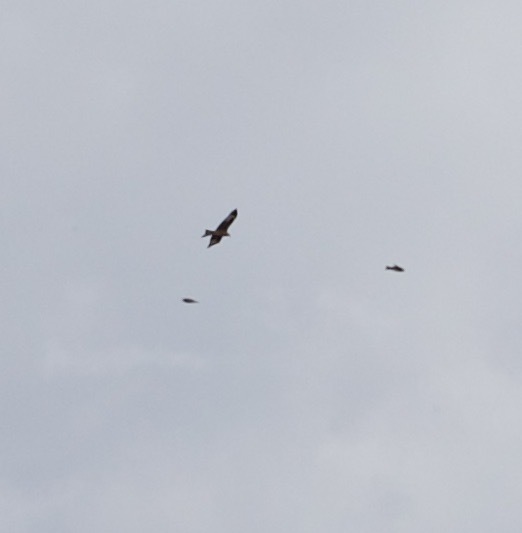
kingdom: Animalia
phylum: Chordata
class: Aves
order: Accipitriformes
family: Accipitridae
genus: Milvus
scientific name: Milvus milvus
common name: Red kite
